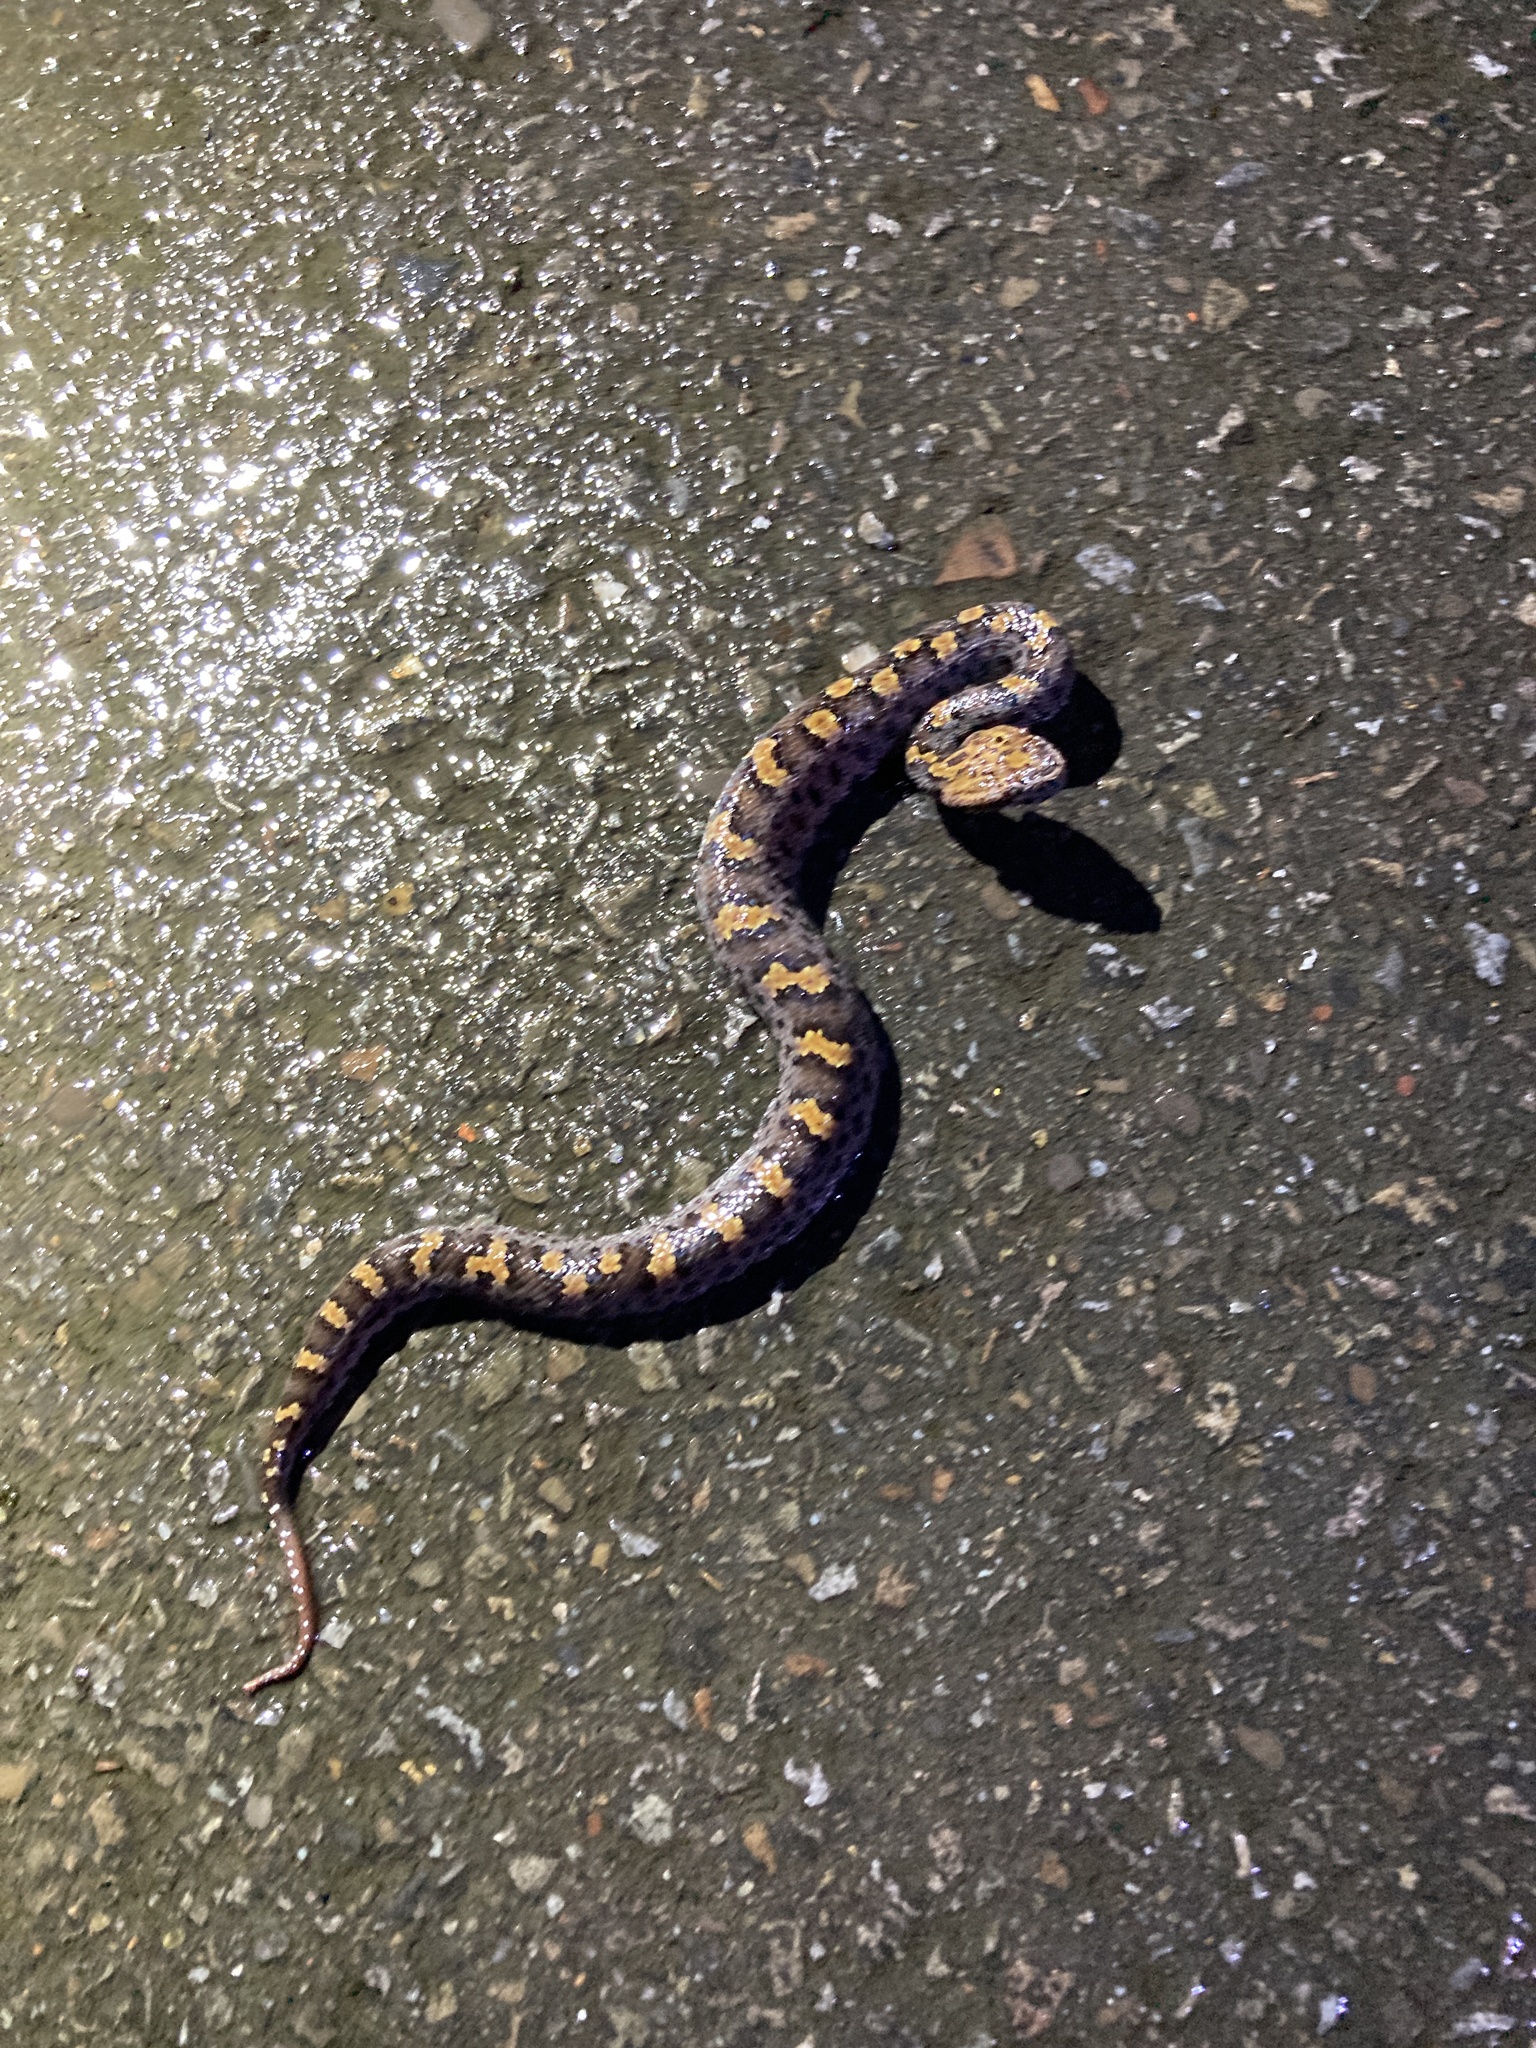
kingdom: Animalia
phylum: Chordata
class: Squamata
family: Viperidae
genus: Ovophis
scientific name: Ovophis makazayazaya
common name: Taiwan mountain pitviper
